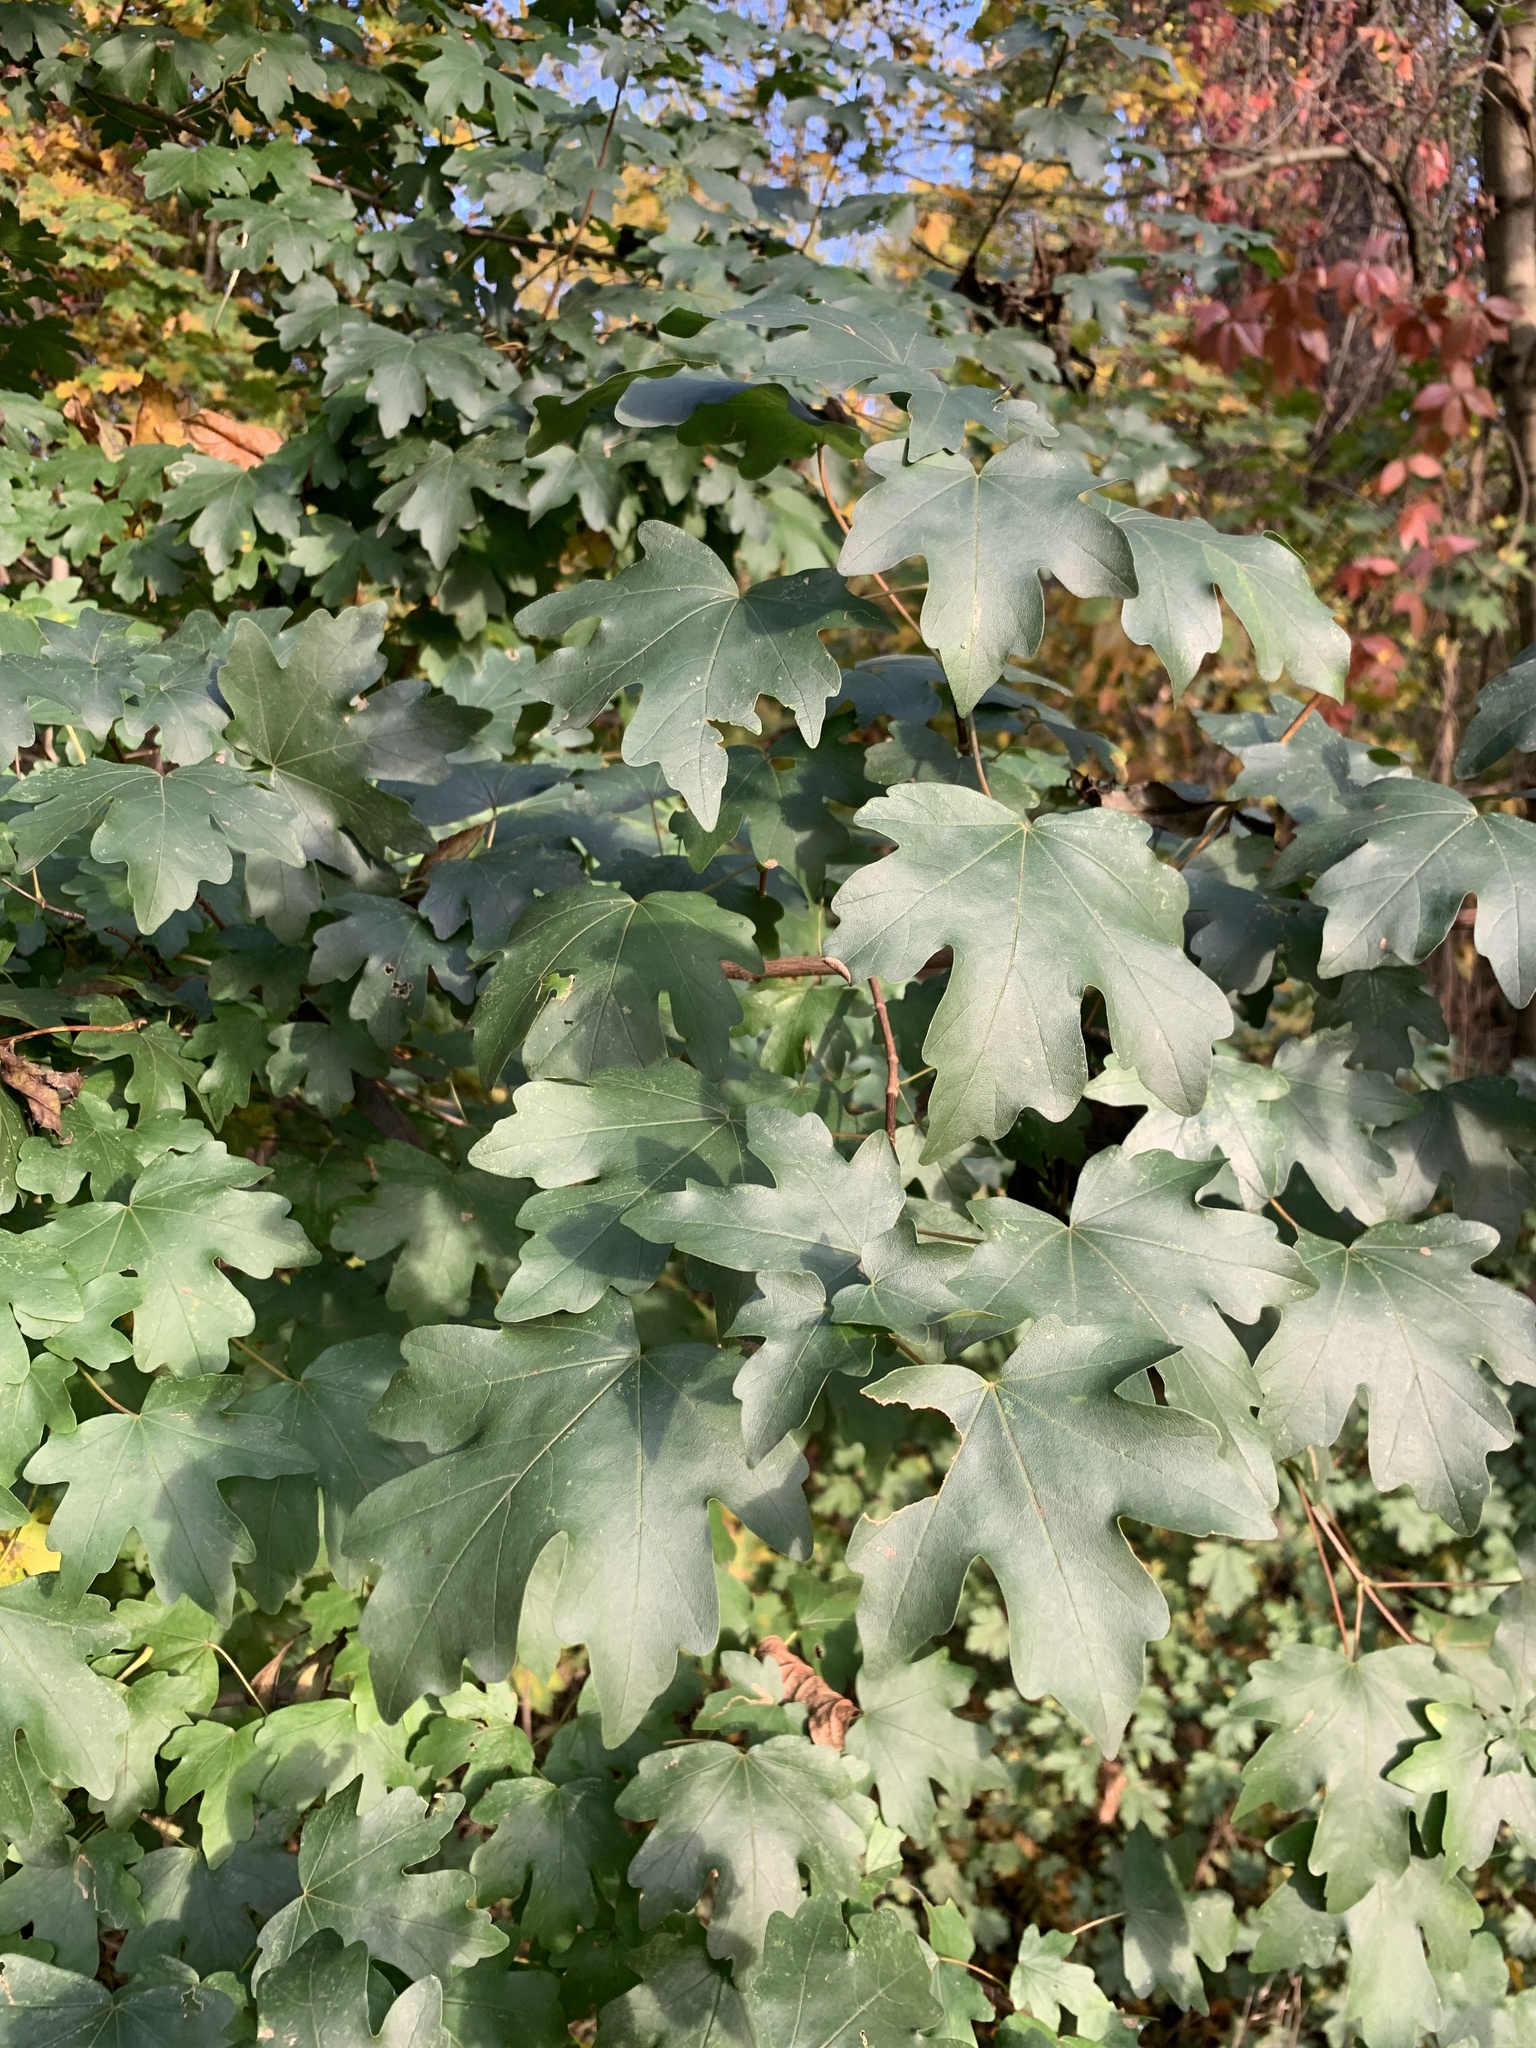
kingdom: Plantae
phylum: Tracheophyta
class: Magnoliopsida
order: Sapindales
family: Sapindaceae
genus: Acer
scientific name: Acer campestre
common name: Field maple
